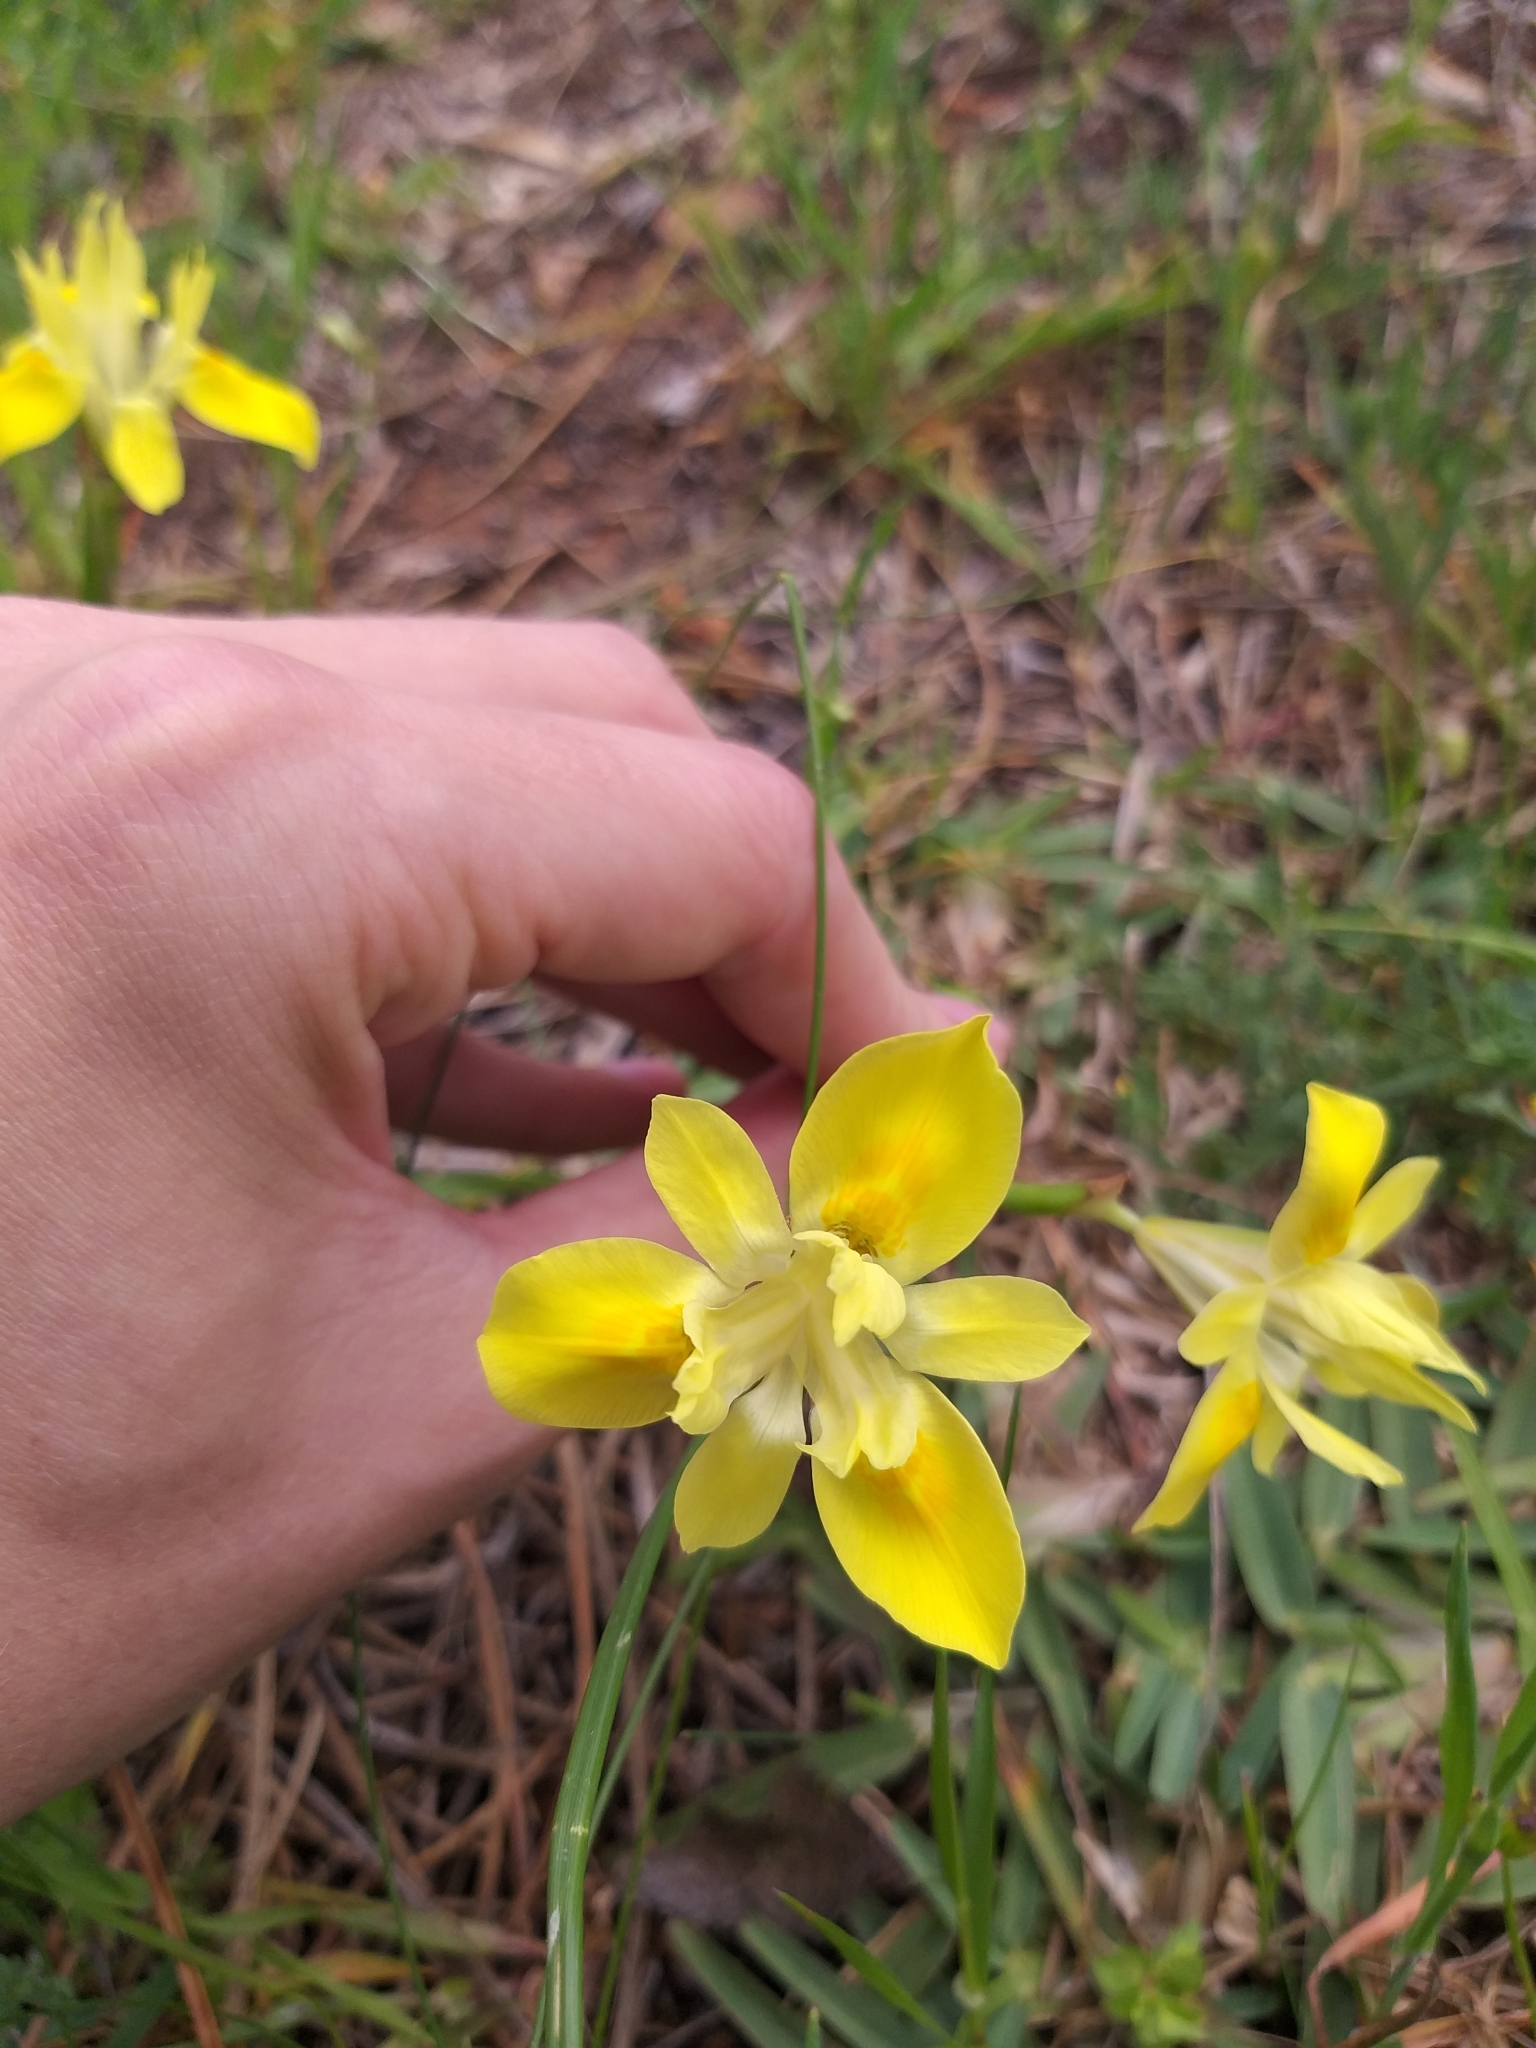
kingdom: Plantae
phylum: Tracheophyta
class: Liliopsida
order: Asparagales
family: Iridaceae
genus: Moraea
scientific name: Moraea fugax
